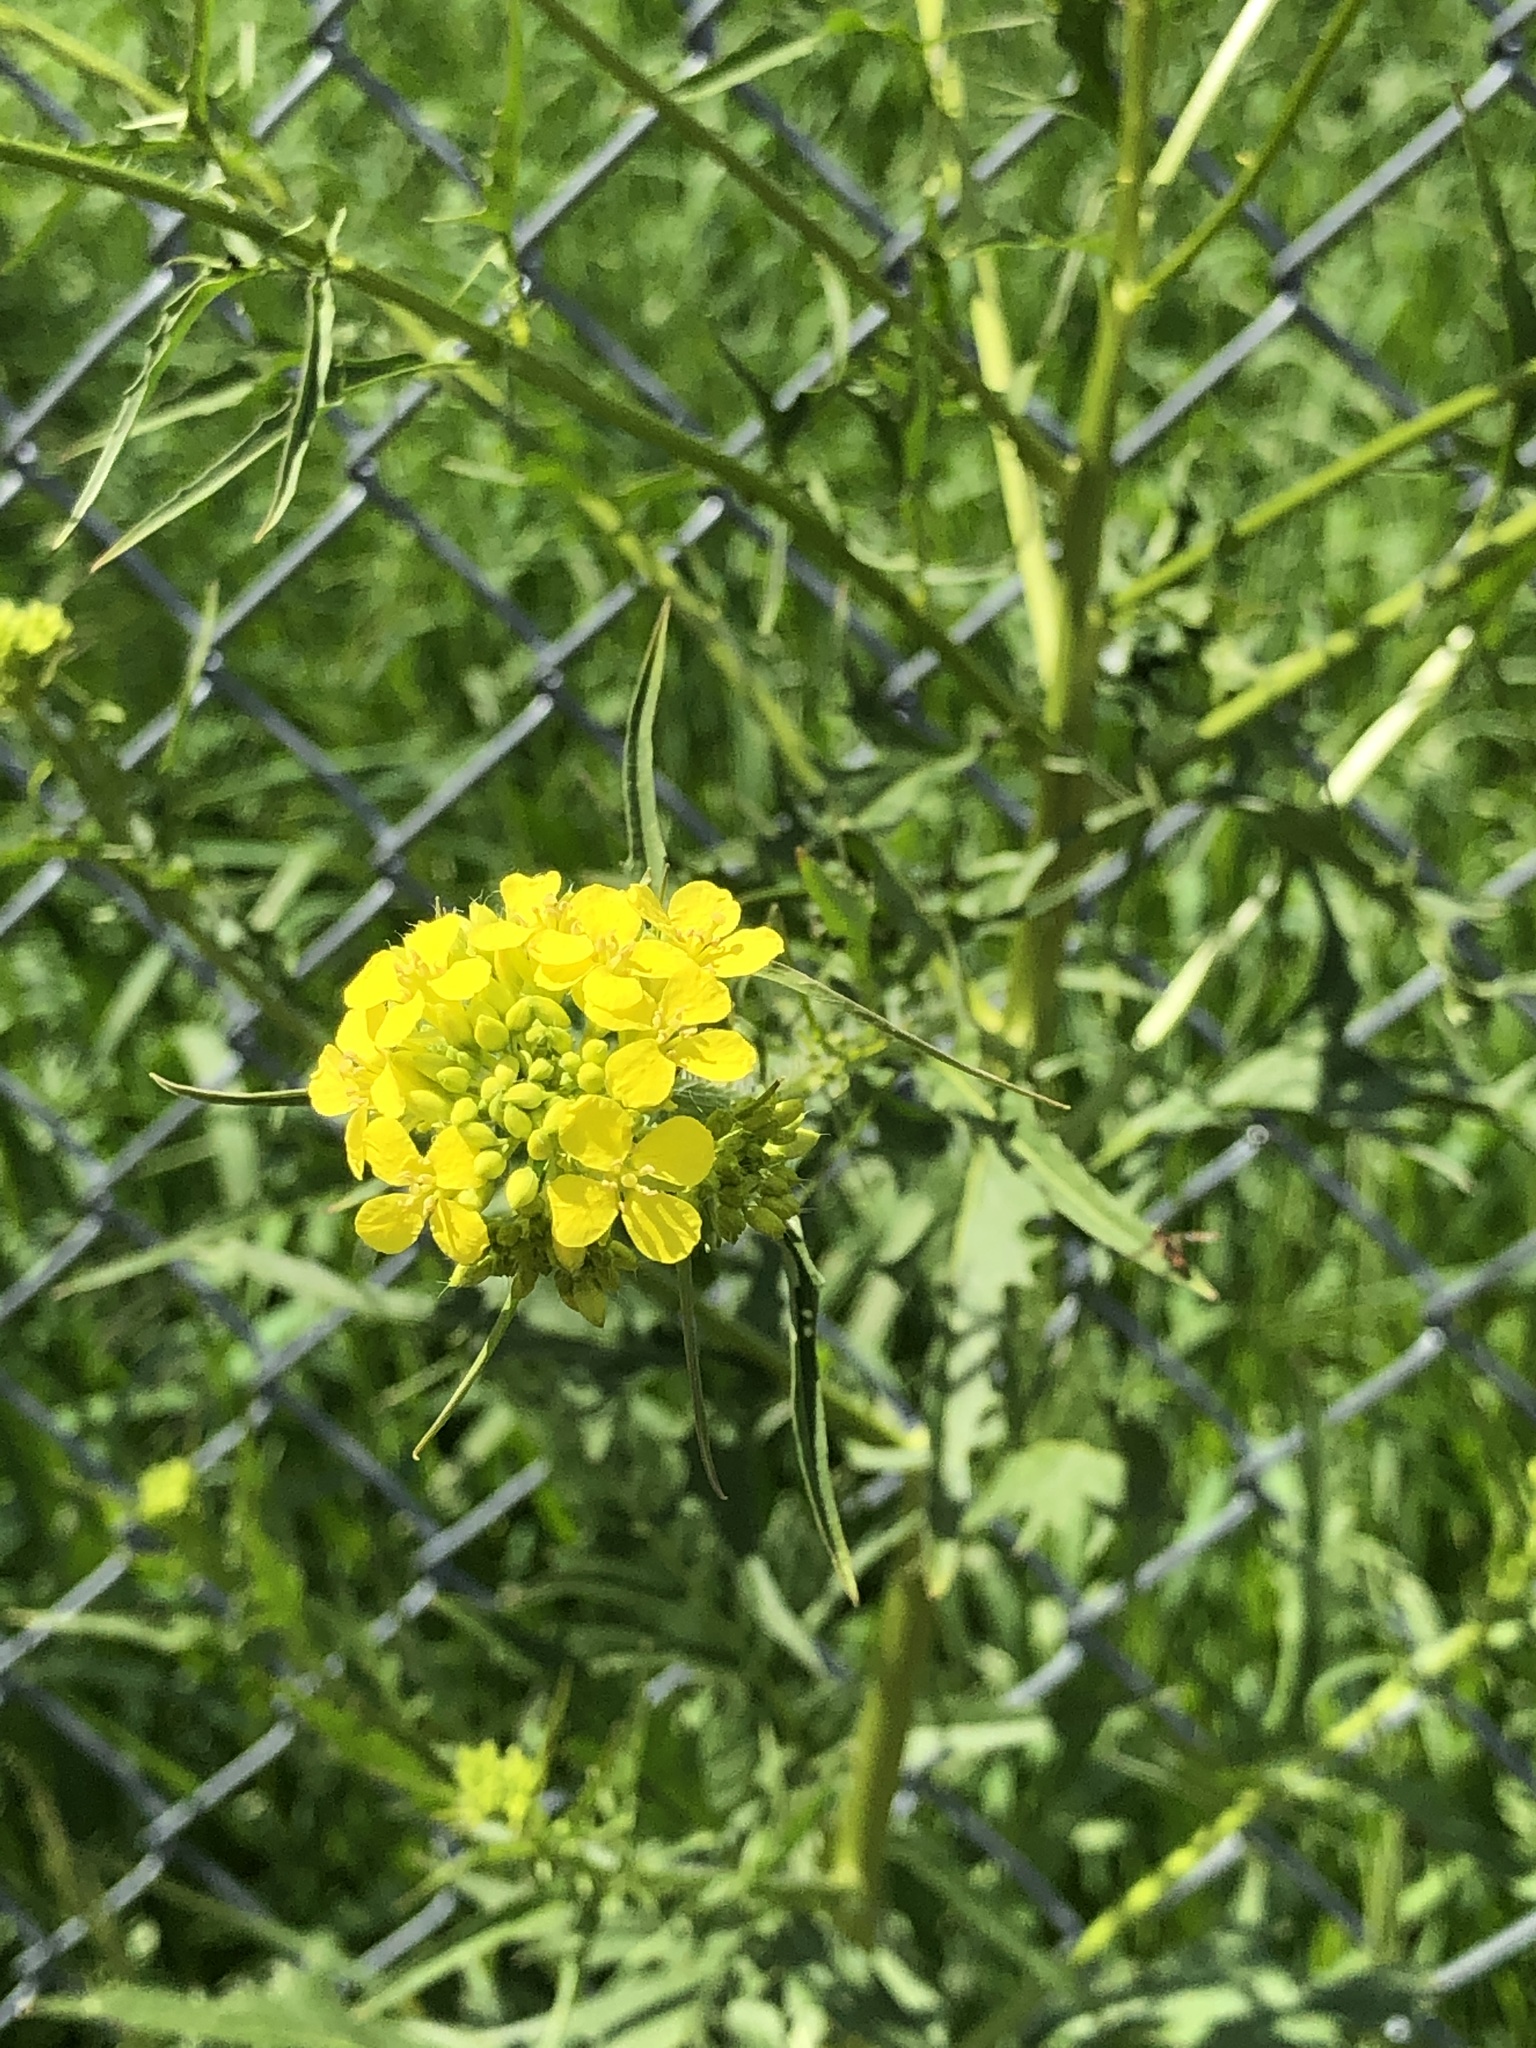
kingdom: Plantae
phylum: Tracheophyta
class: Magnoliopsida
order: Brassicales
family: Brassicaceae
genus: Sinapis
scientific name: Sinapis arvensis
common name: Charlock
